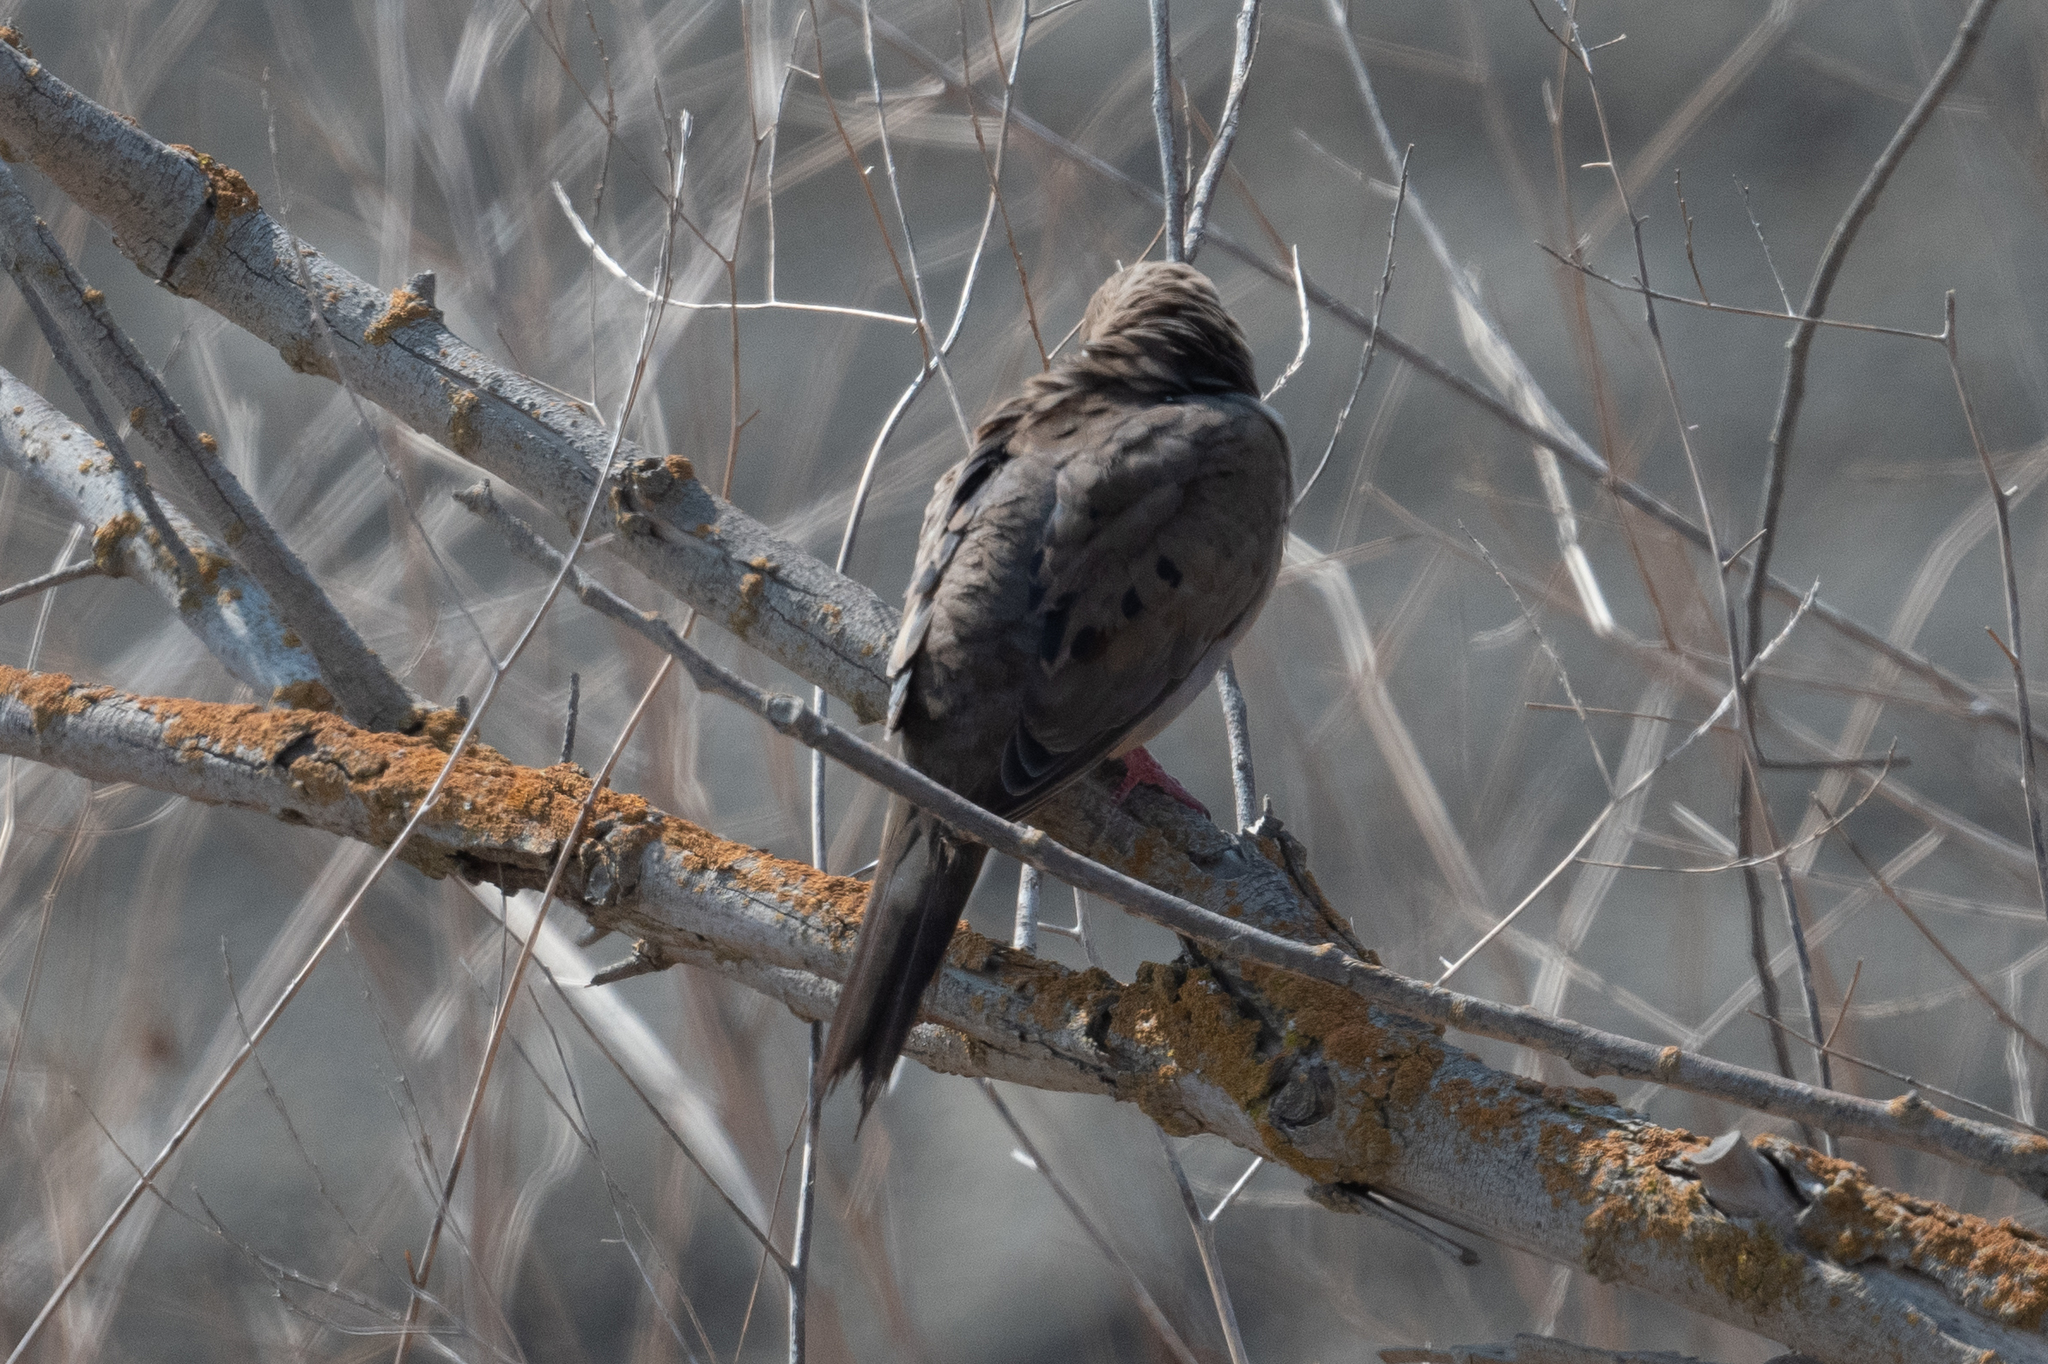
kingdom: Animalia
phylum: Chordata
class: Aves
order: Columbiformes
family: Columbidae
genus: Zenaida
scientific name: Zenaida macroura
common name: Mourning dove
